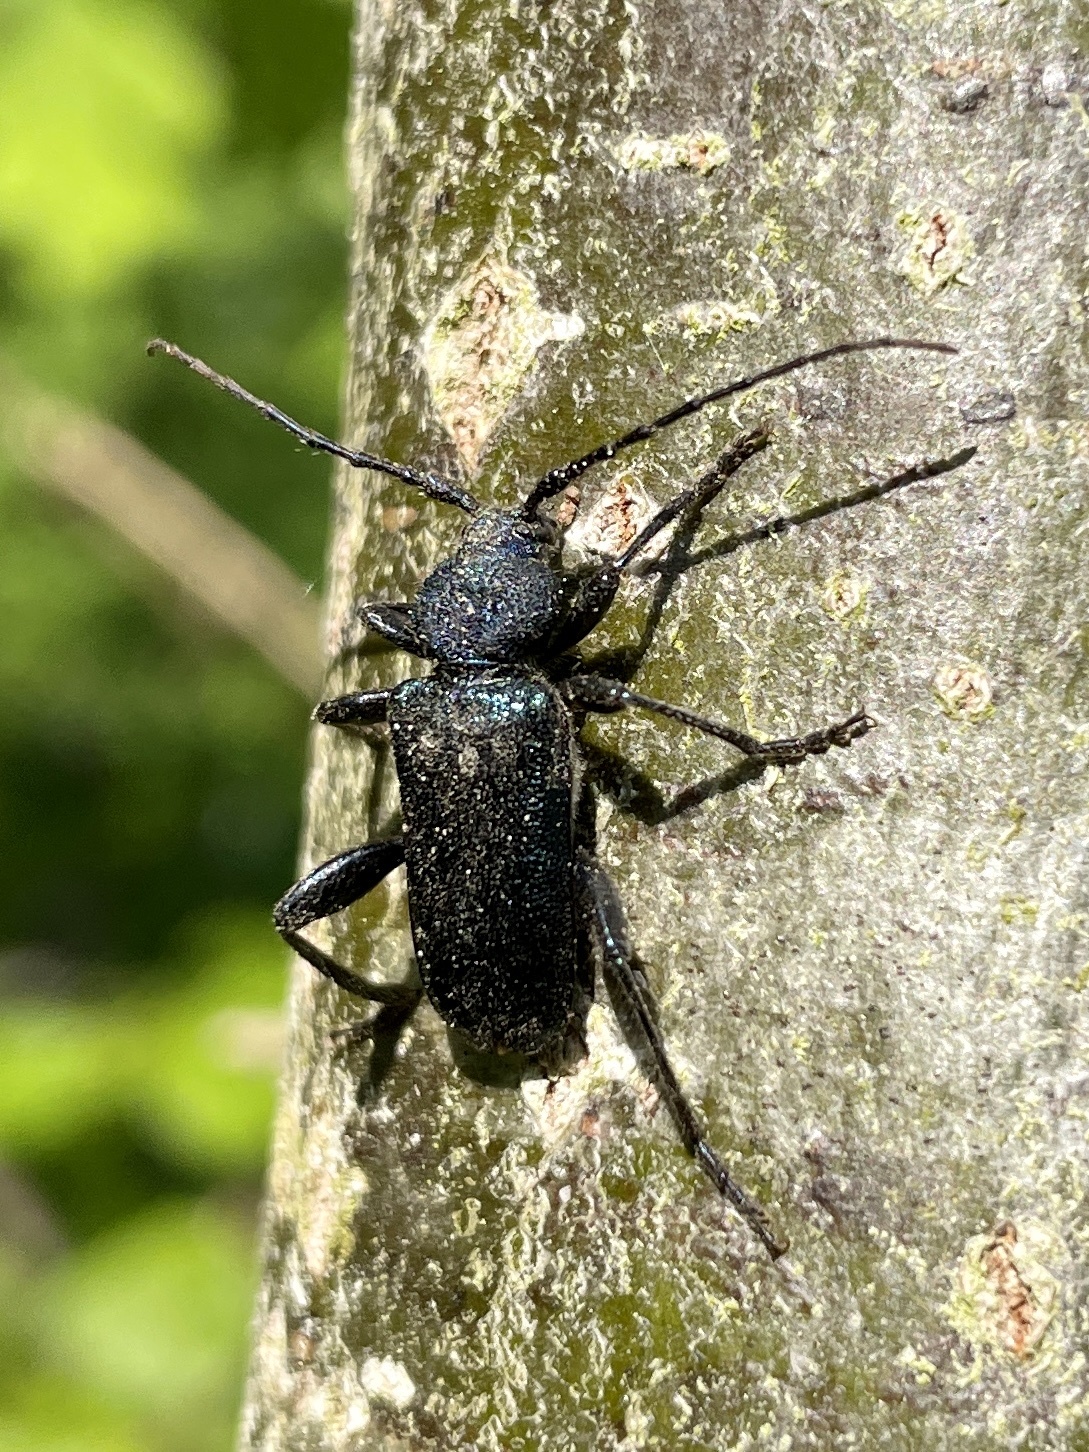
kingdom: Animalia
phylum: Arthropoda
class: Insecta
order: Coleoptera
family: Cerambycidae
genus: Callidium
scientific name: Callidium violaceum
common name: Violet tanbark beetle
